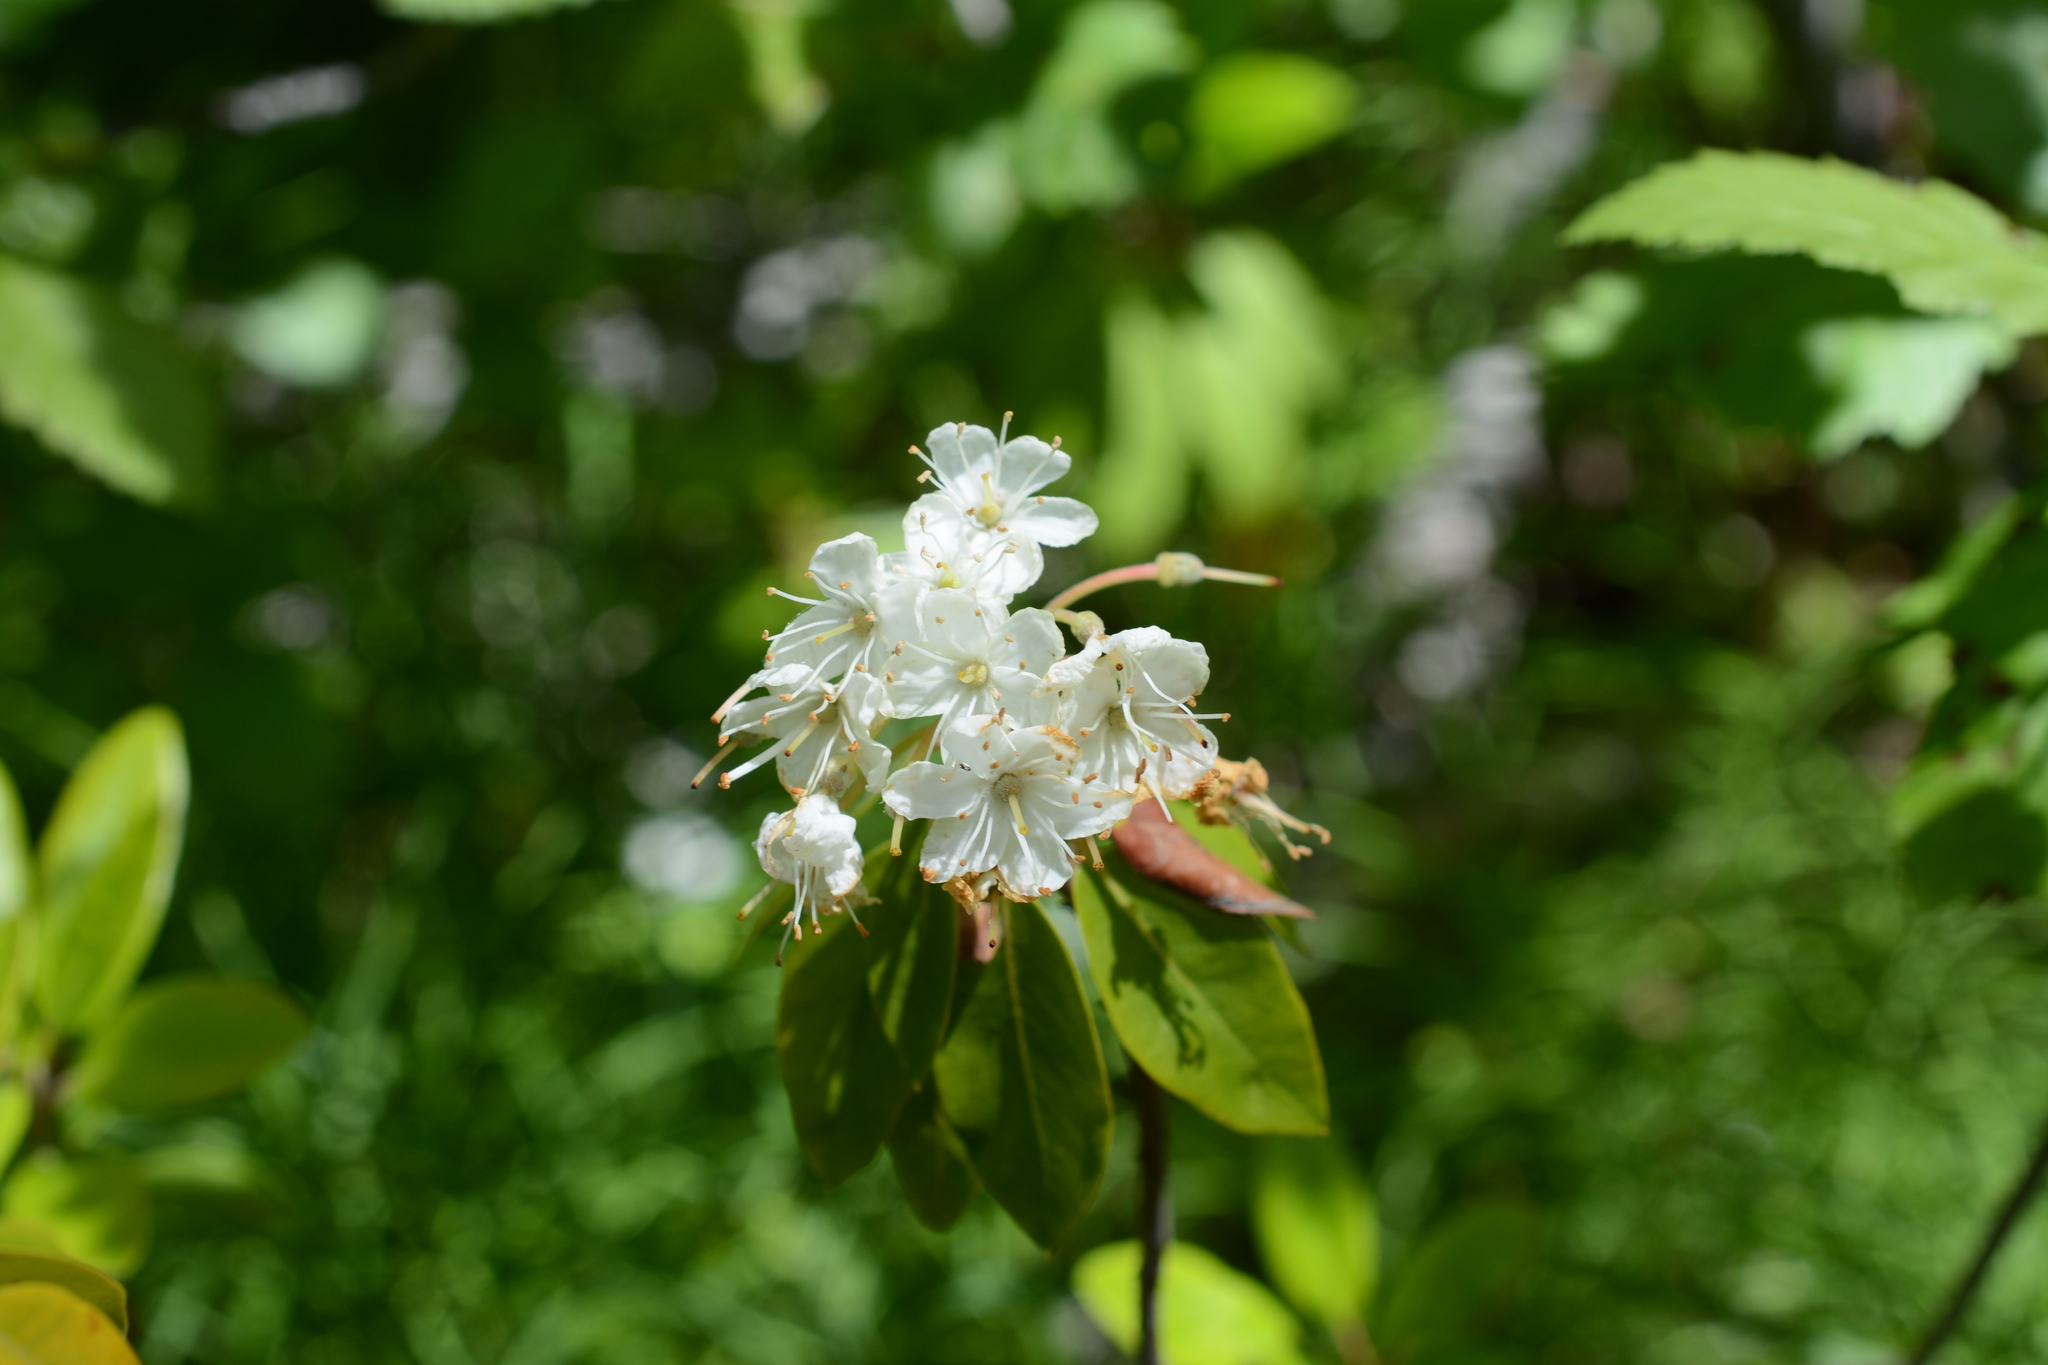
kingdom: Plantae
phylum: Tracheophyta
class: Magnoliopsida
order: Ericales
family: Ericaceae
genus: Rhododendron
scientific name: Rhododendron columbianum
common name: Western labrador tea
